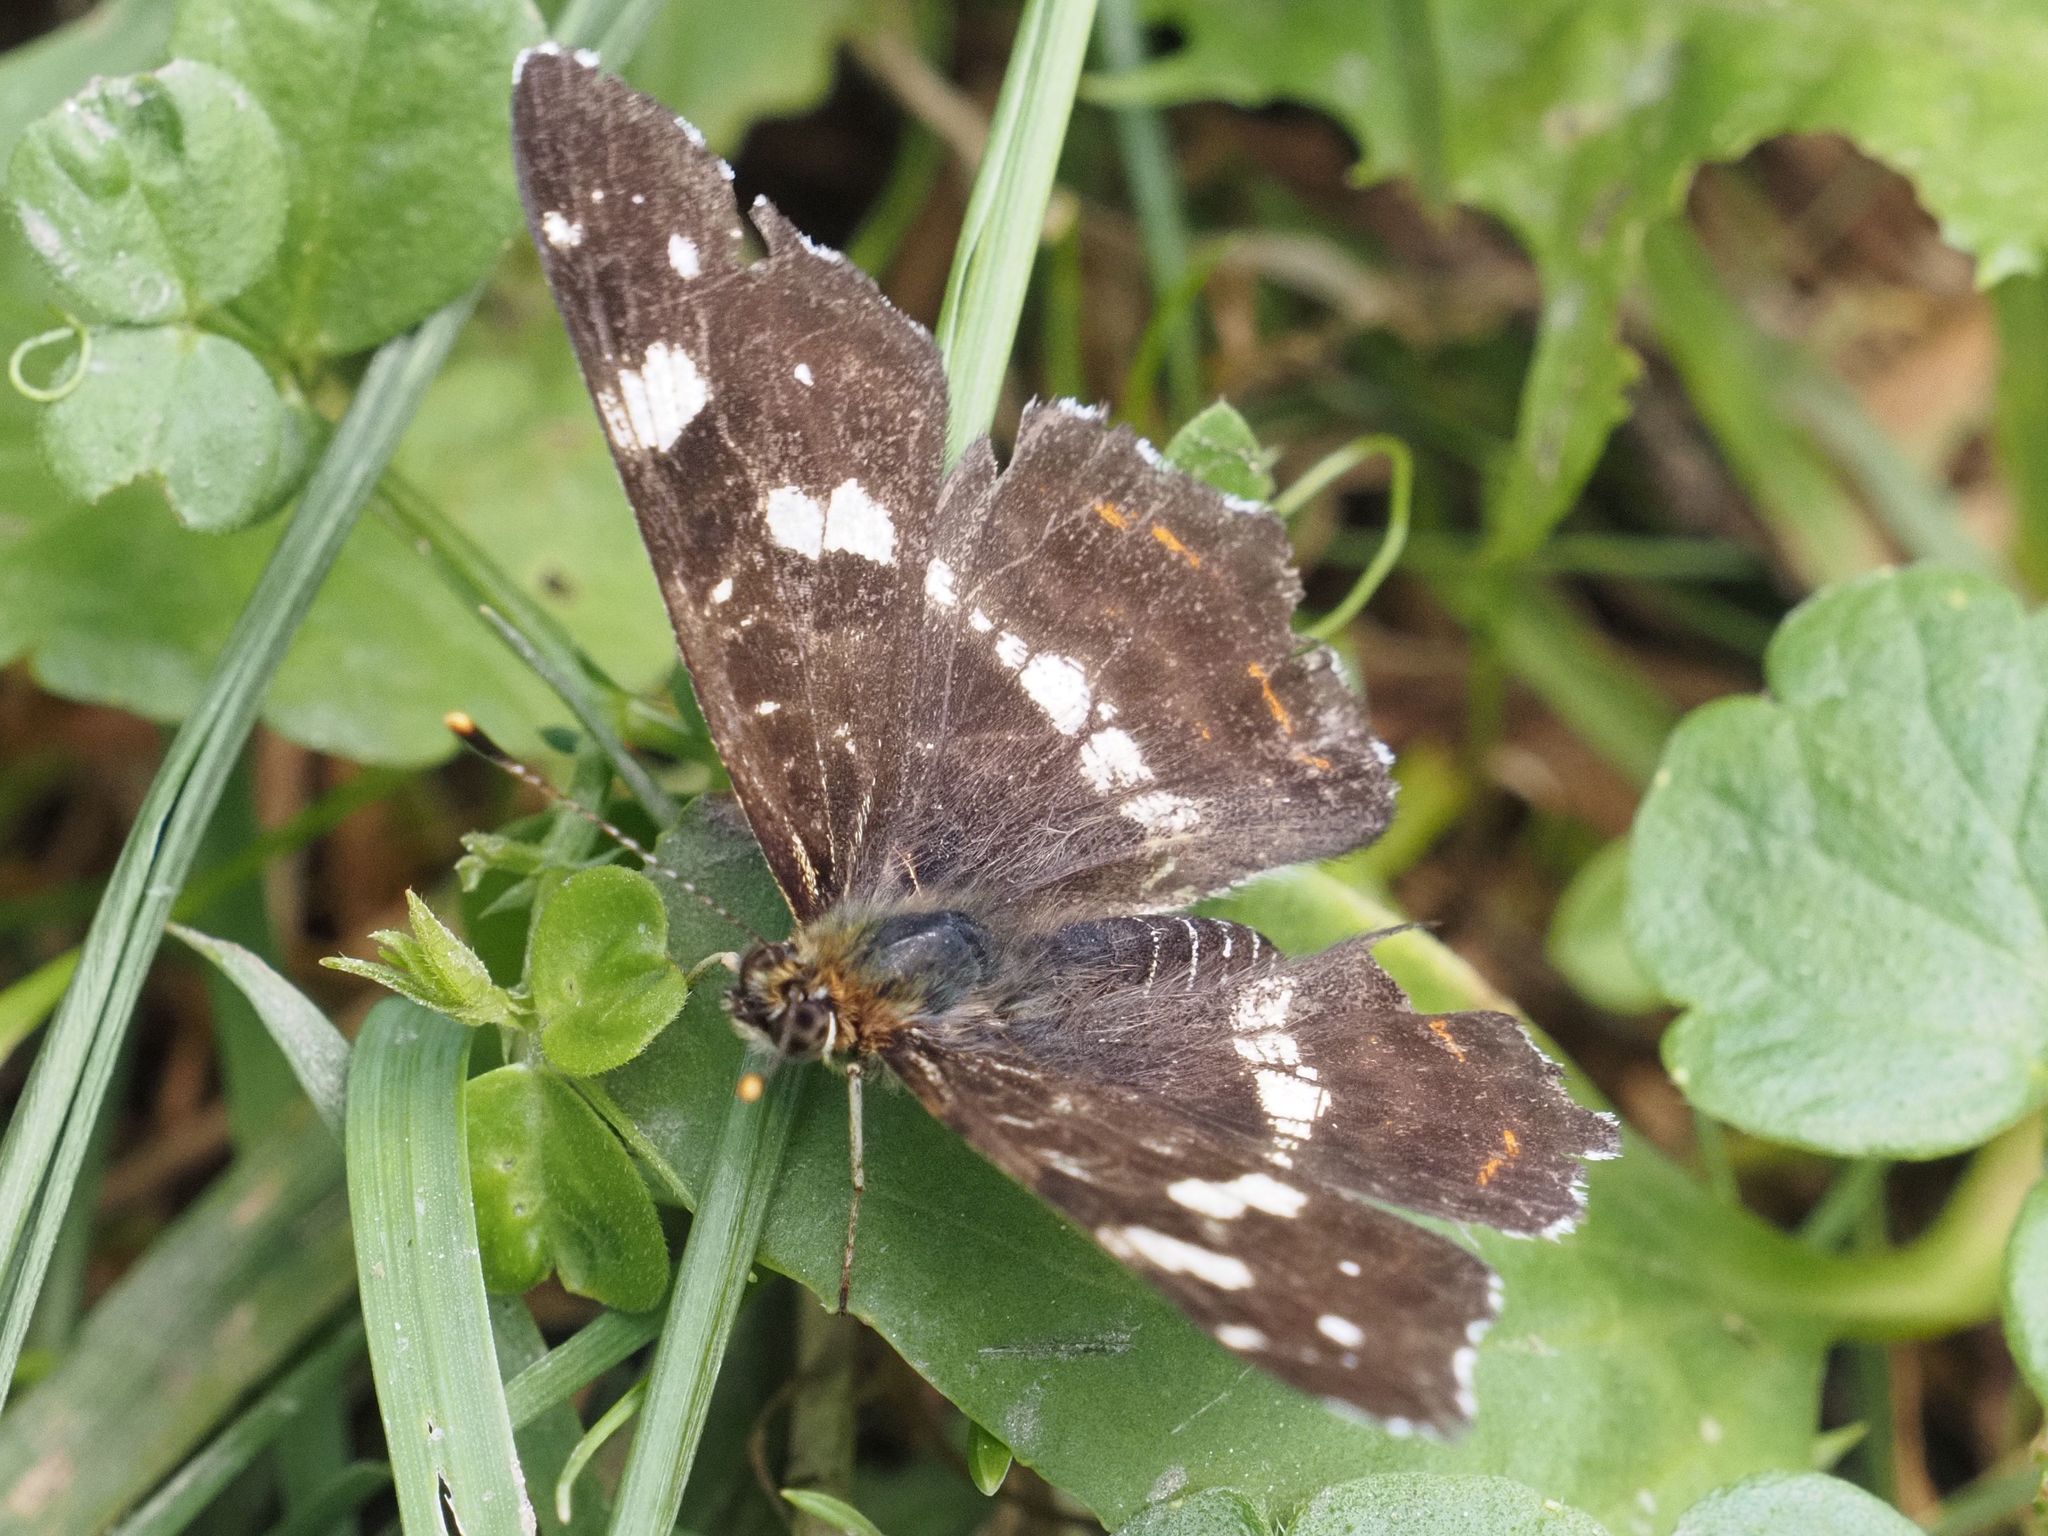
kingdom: Animalia
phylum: Arthropoda
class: Insecta
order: Lepidoptera
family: Nymphalidae
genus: Araschnia
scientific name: Araschnia levana
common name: Map butterfly
